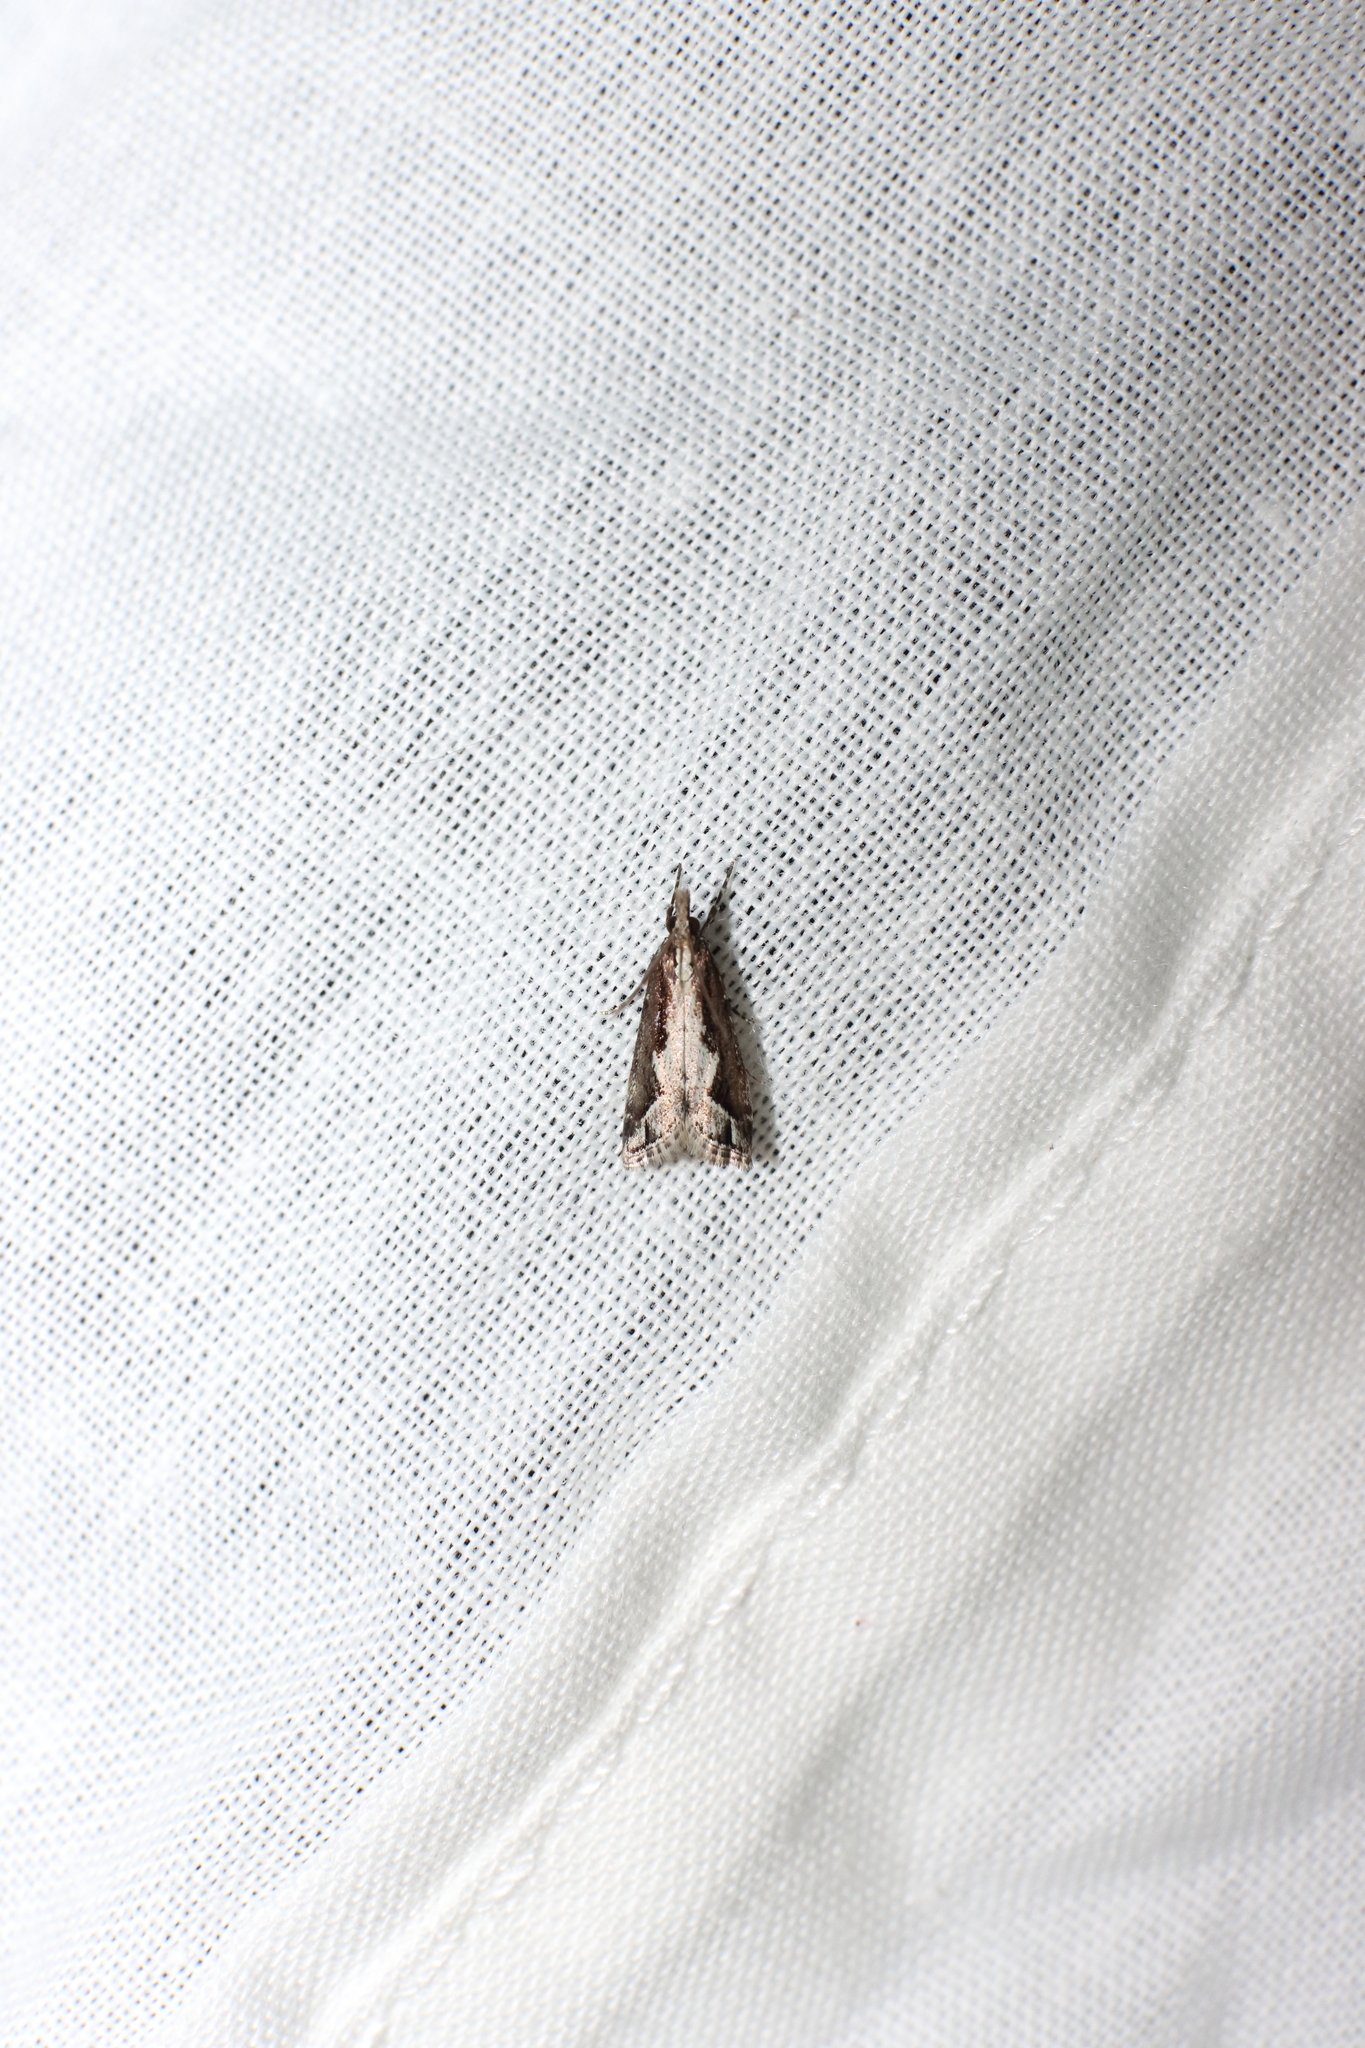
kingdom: Animalia
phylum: Arthropoda
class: Insecta
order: Lepidoptera
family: Crambidae
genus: Eudonia
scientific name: Eudonia steropaea
